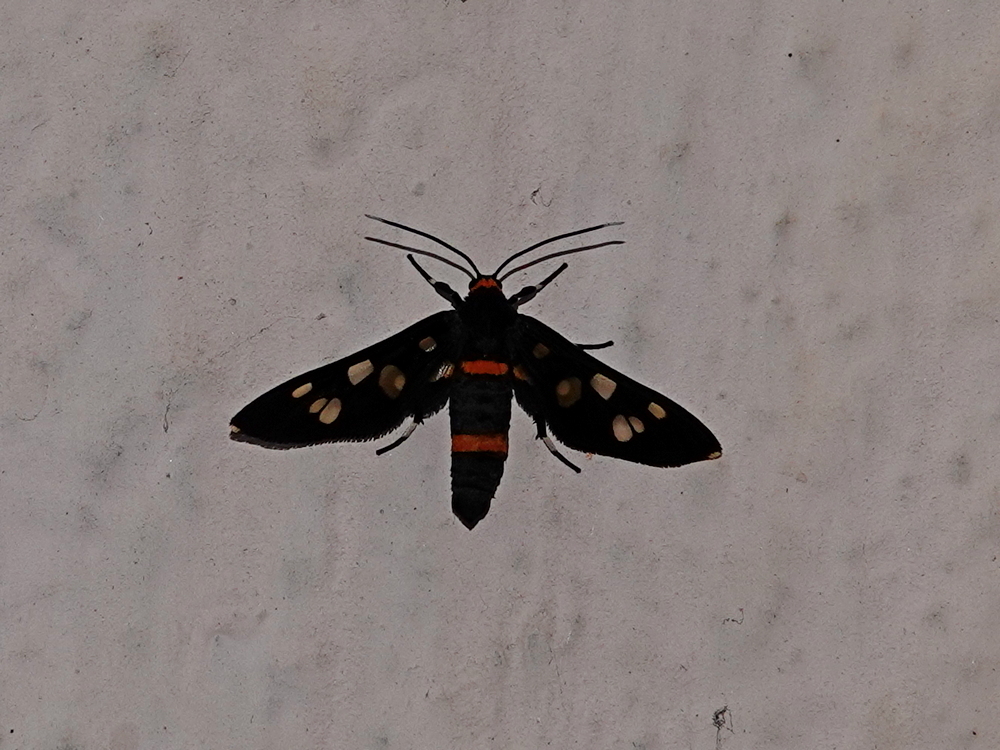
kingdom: Animalia
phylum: Arthropoda
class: Insecta
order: Lepidoptera
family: Erebidae
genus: Syntomoides
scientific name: Syntomoides imaon
